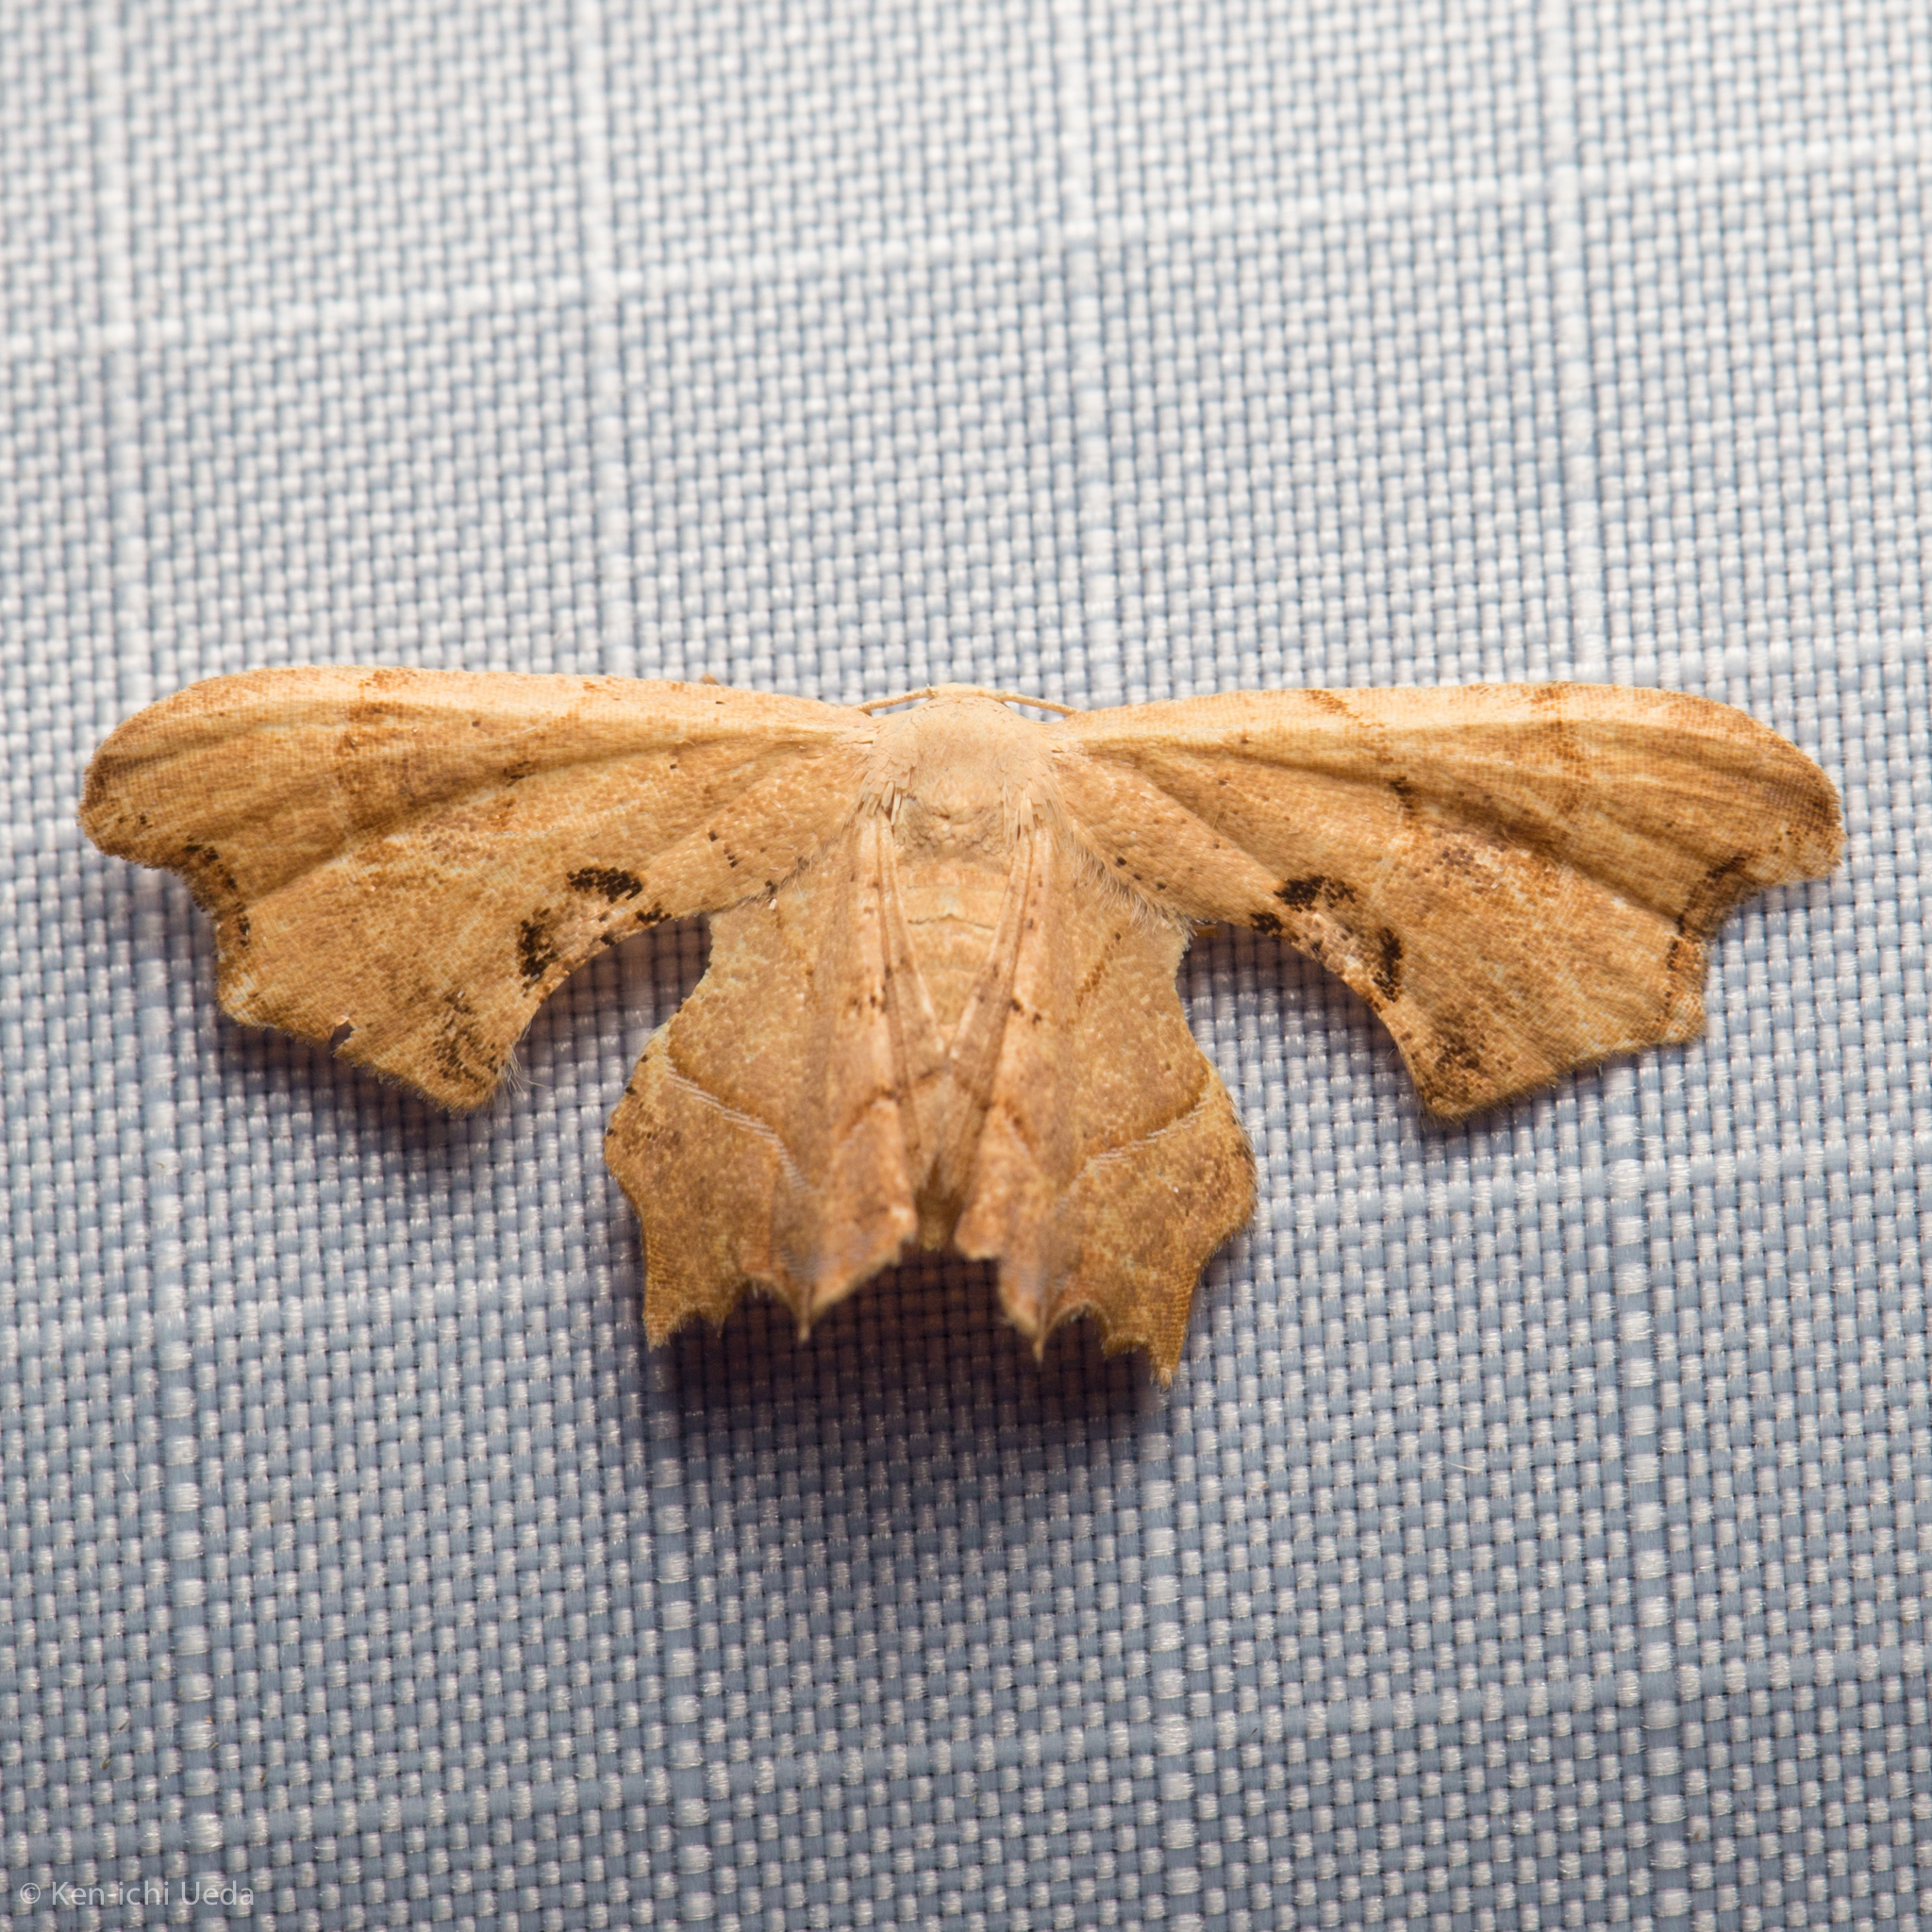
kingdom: Animalia
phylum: Arthropoda
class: Insecta
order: Lepidoptera
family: Uraniidae
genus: Epiplema
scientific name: Epiplema Calledapteryx dryopterata
